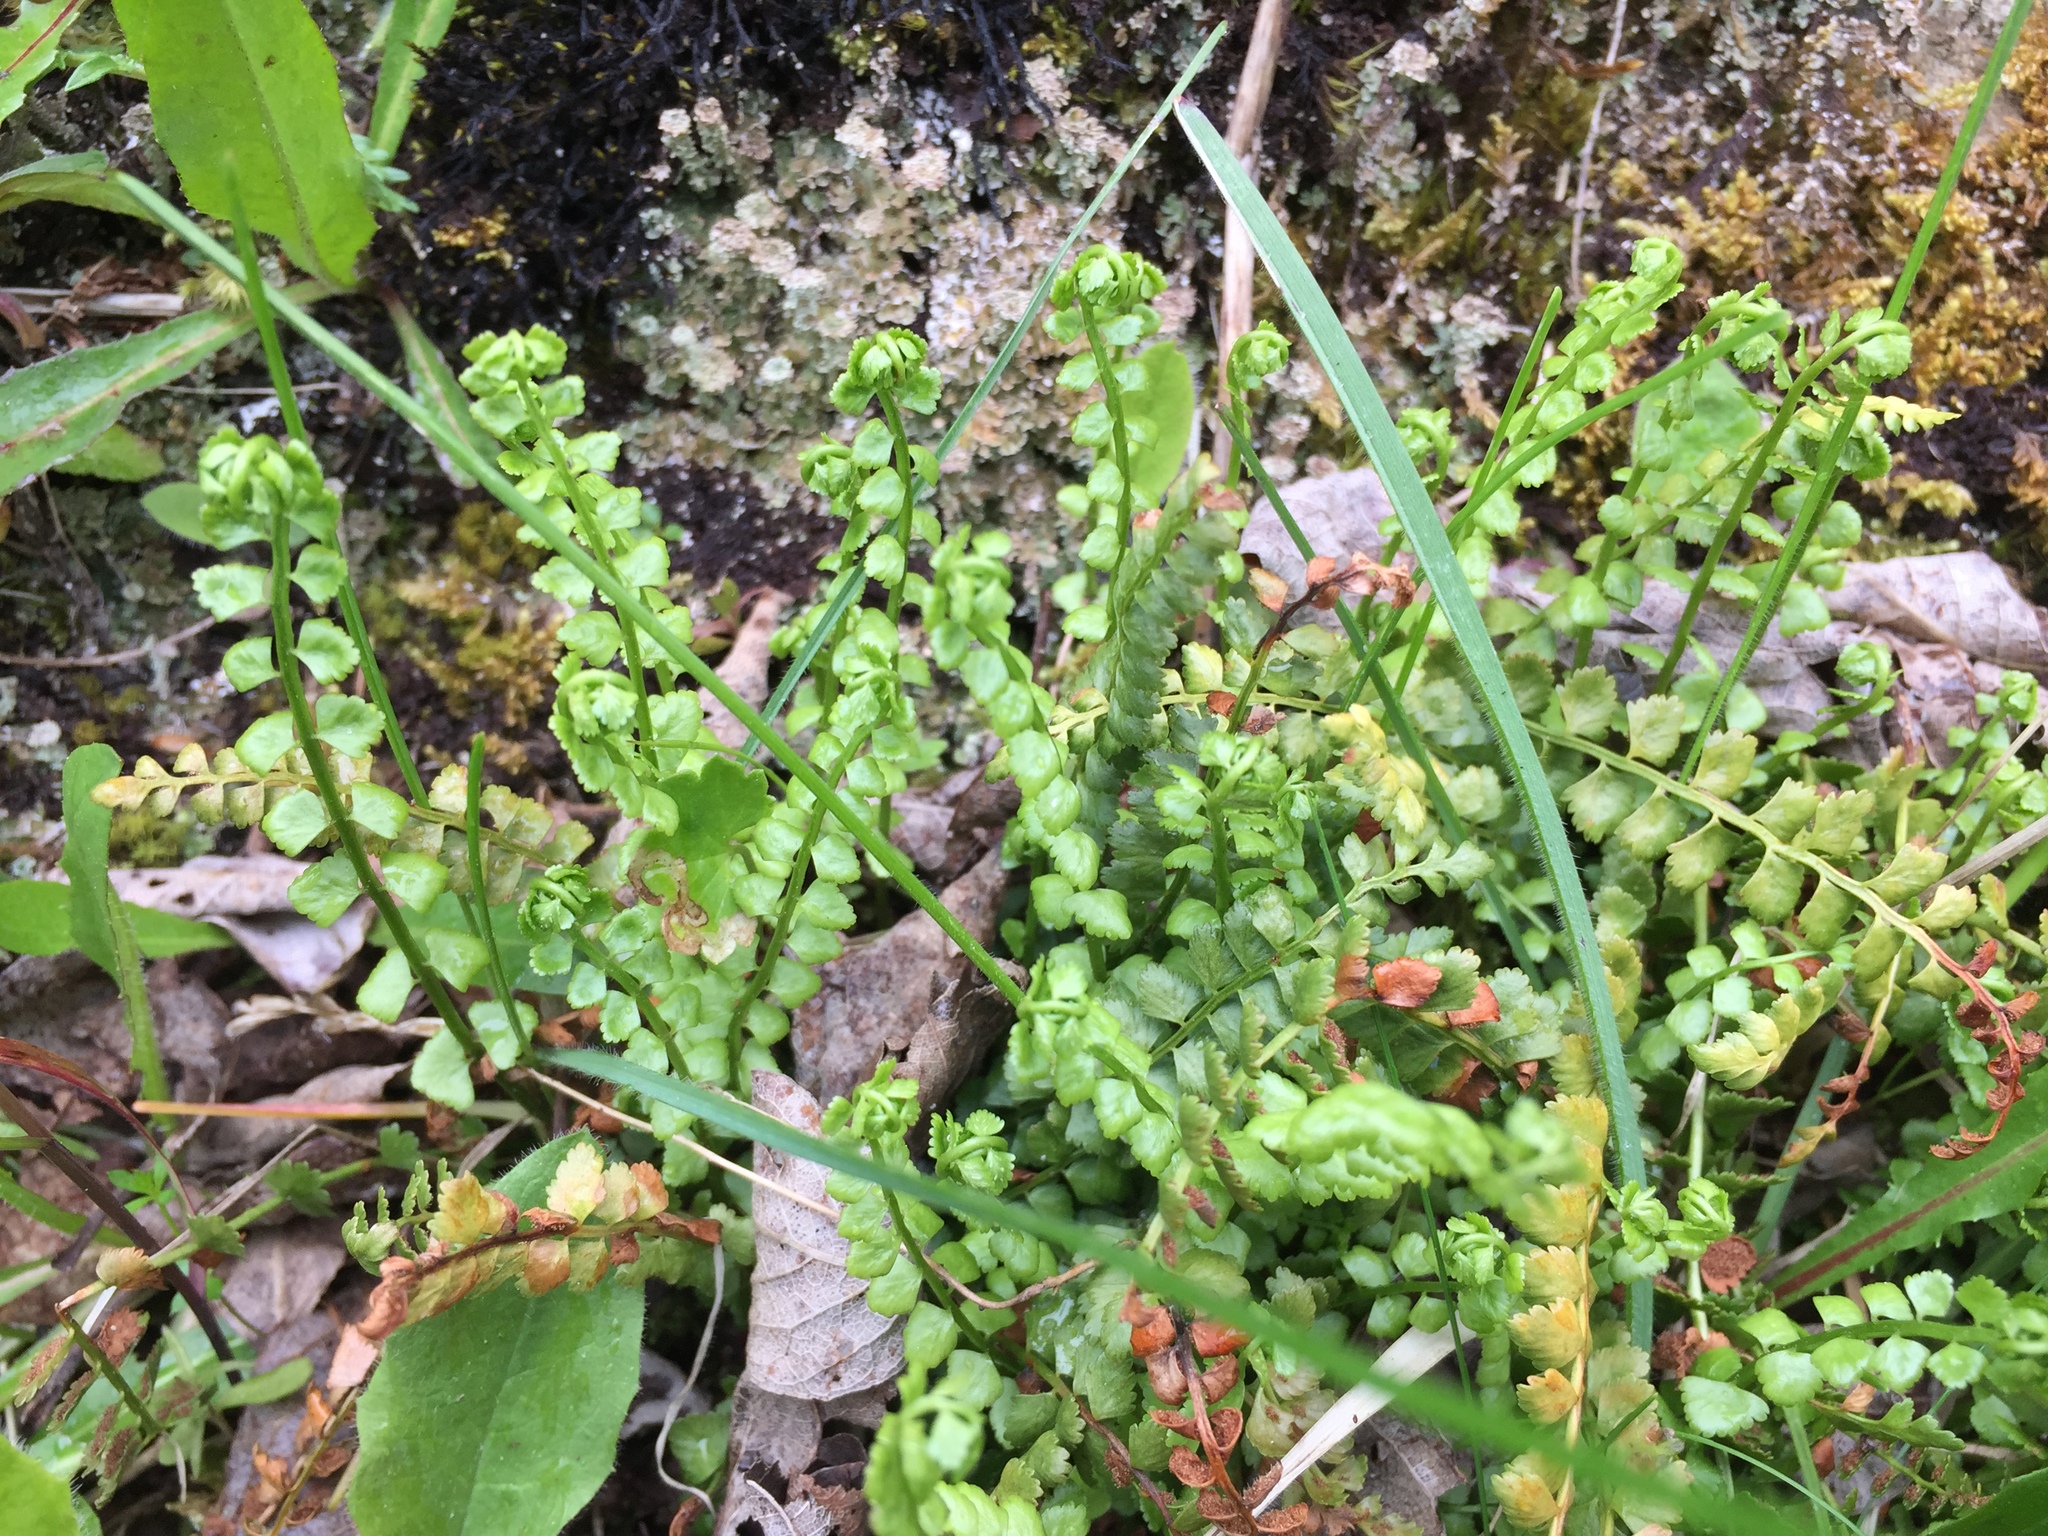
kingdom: Plantae
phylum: Tracheophyta
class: Polypodiopsida
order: Polypodiales
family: Aspleniaceae
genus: Asplenium
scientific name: Asplenium viride
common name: Green spleenwort
